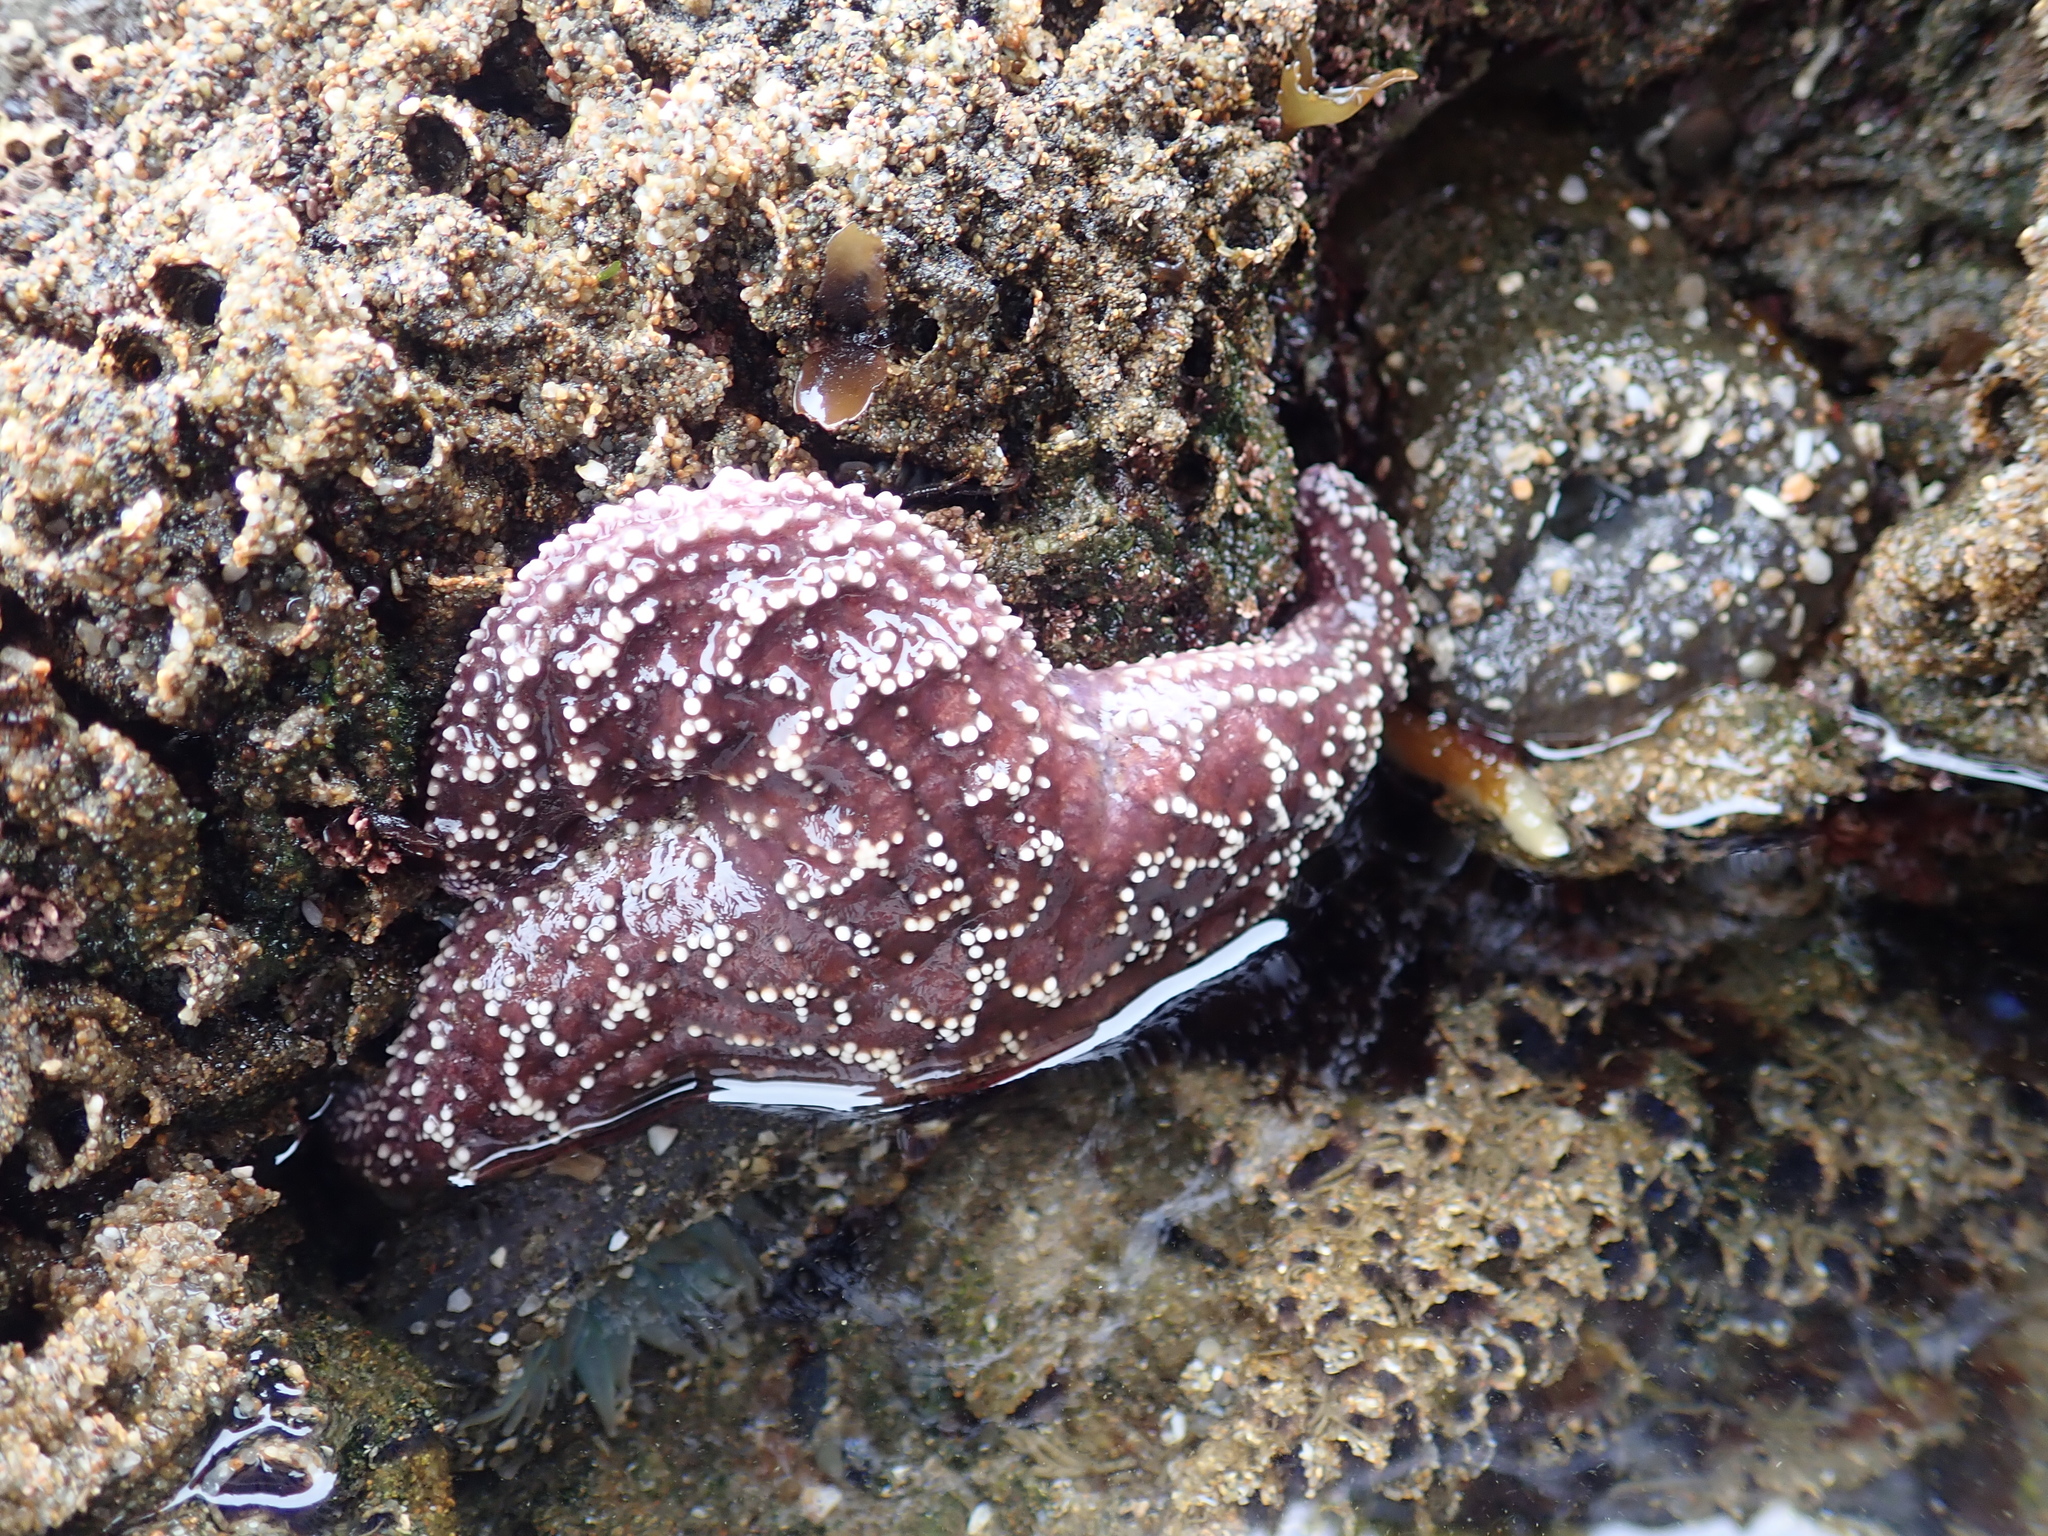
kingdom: Animalia
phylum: Echinodermata
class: Asteroidea
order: Forcipulatida
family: Asteriidae
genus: Pisaster
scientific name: Pisaster ochraceus
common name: Ochre stars
